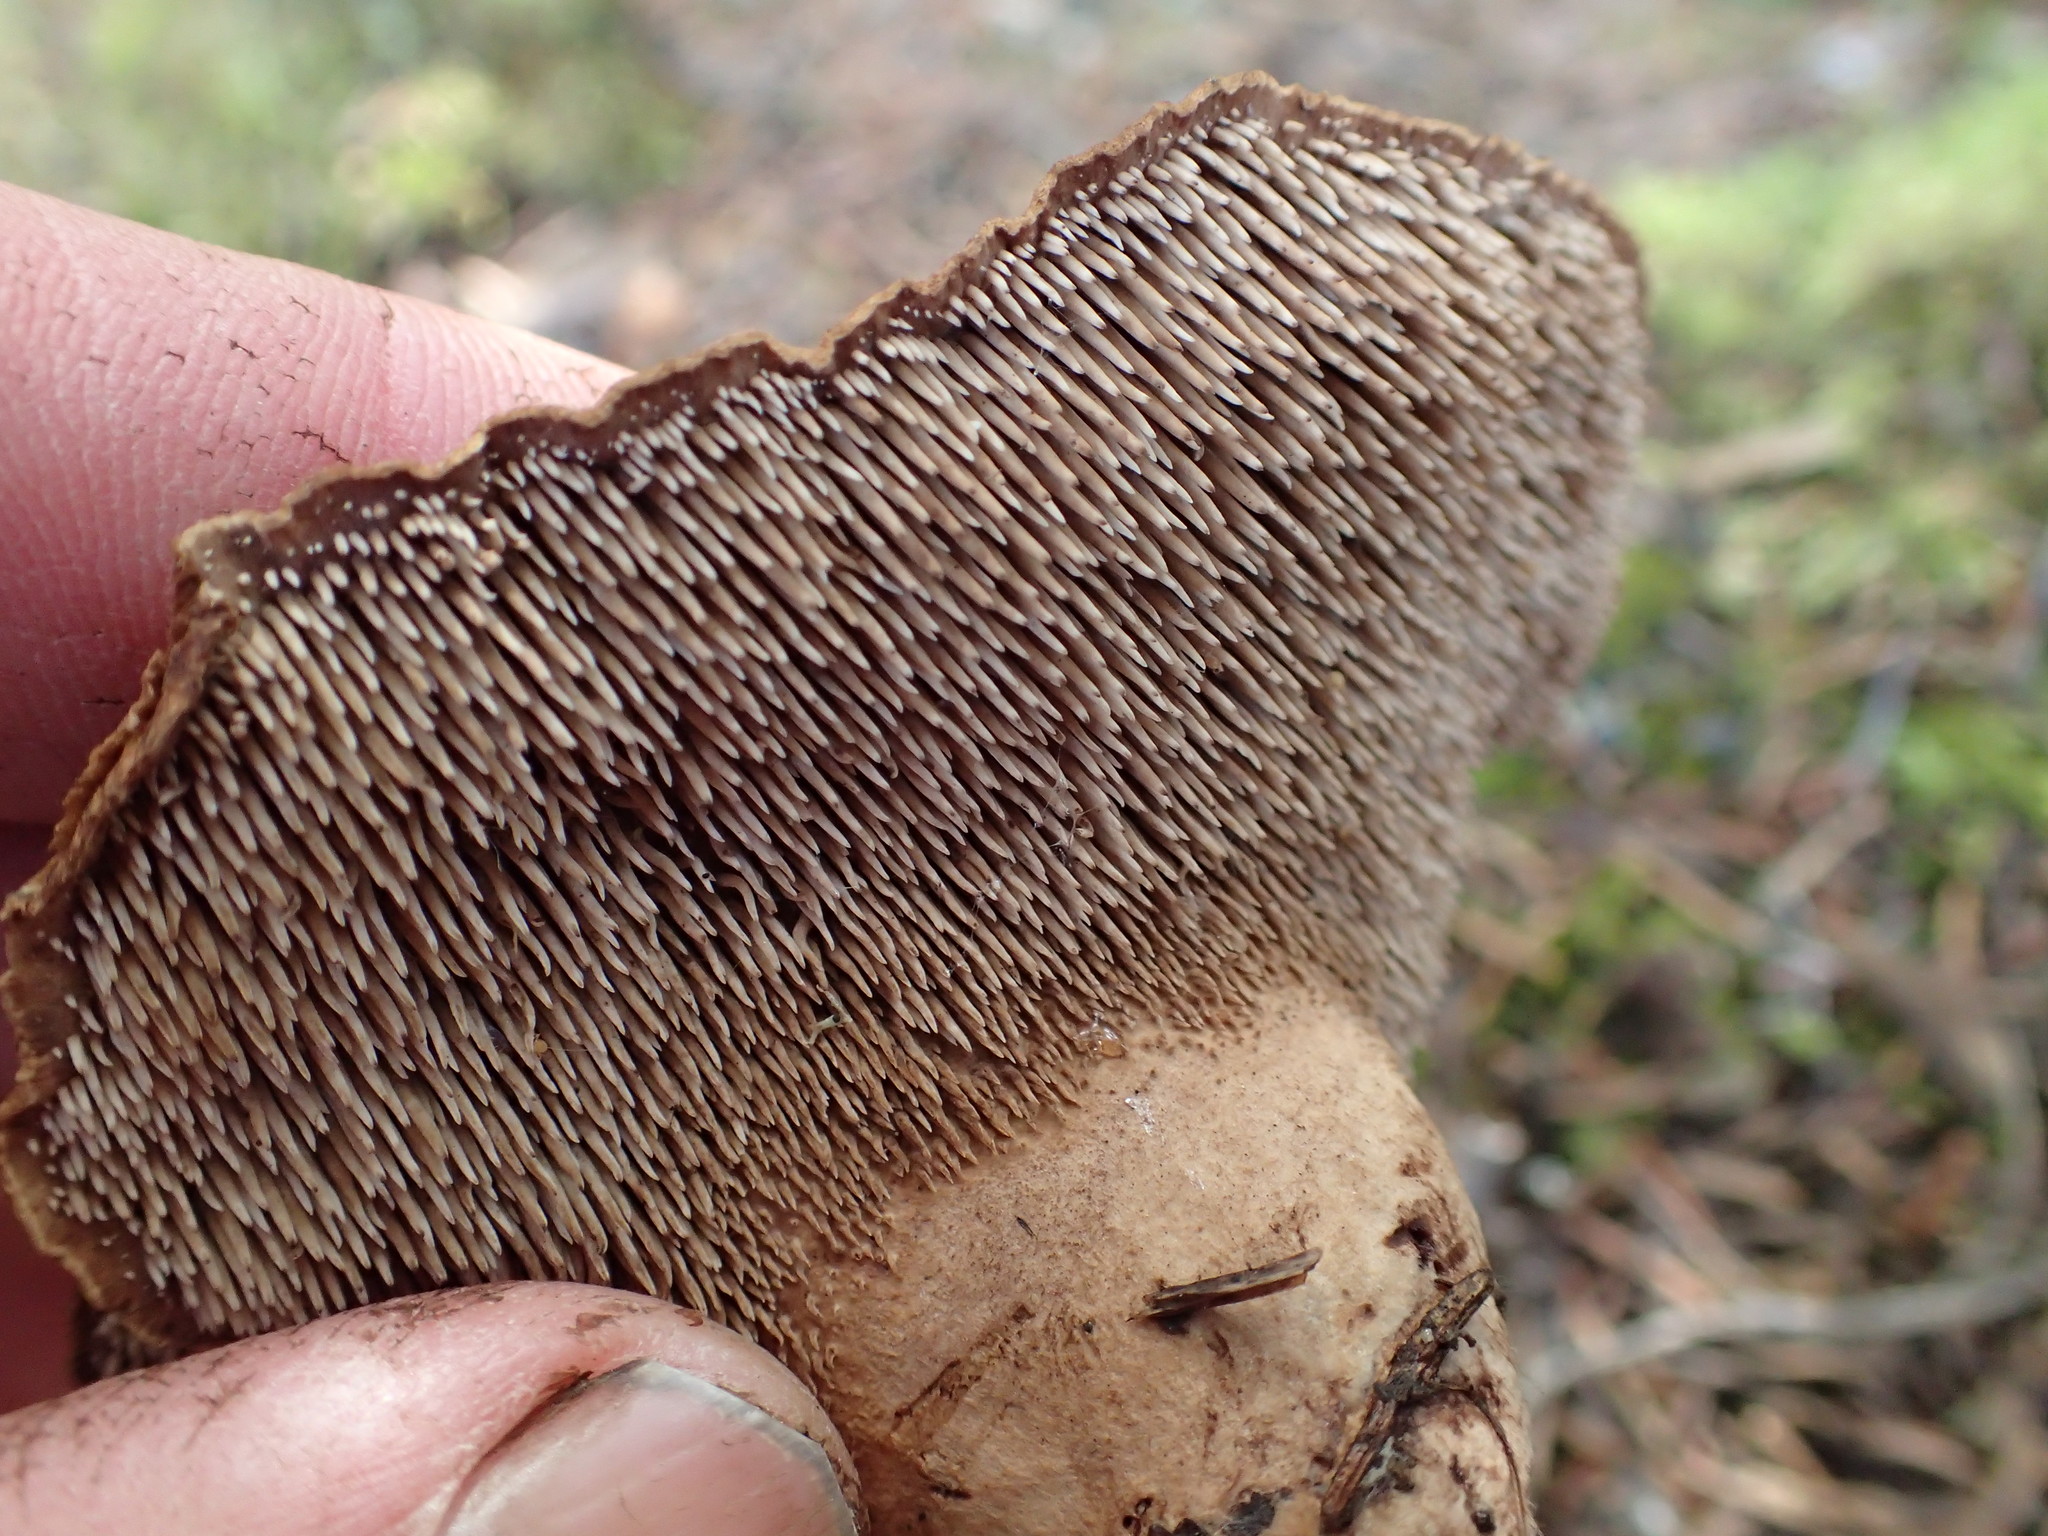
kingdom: Fungi
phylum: Basidiomycota
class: Agaricomycetes
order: Thelephorales
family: Bankeraceae
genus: Sarcodon
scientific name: Sarcodon imbricatus
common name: Shingled hedgehog
